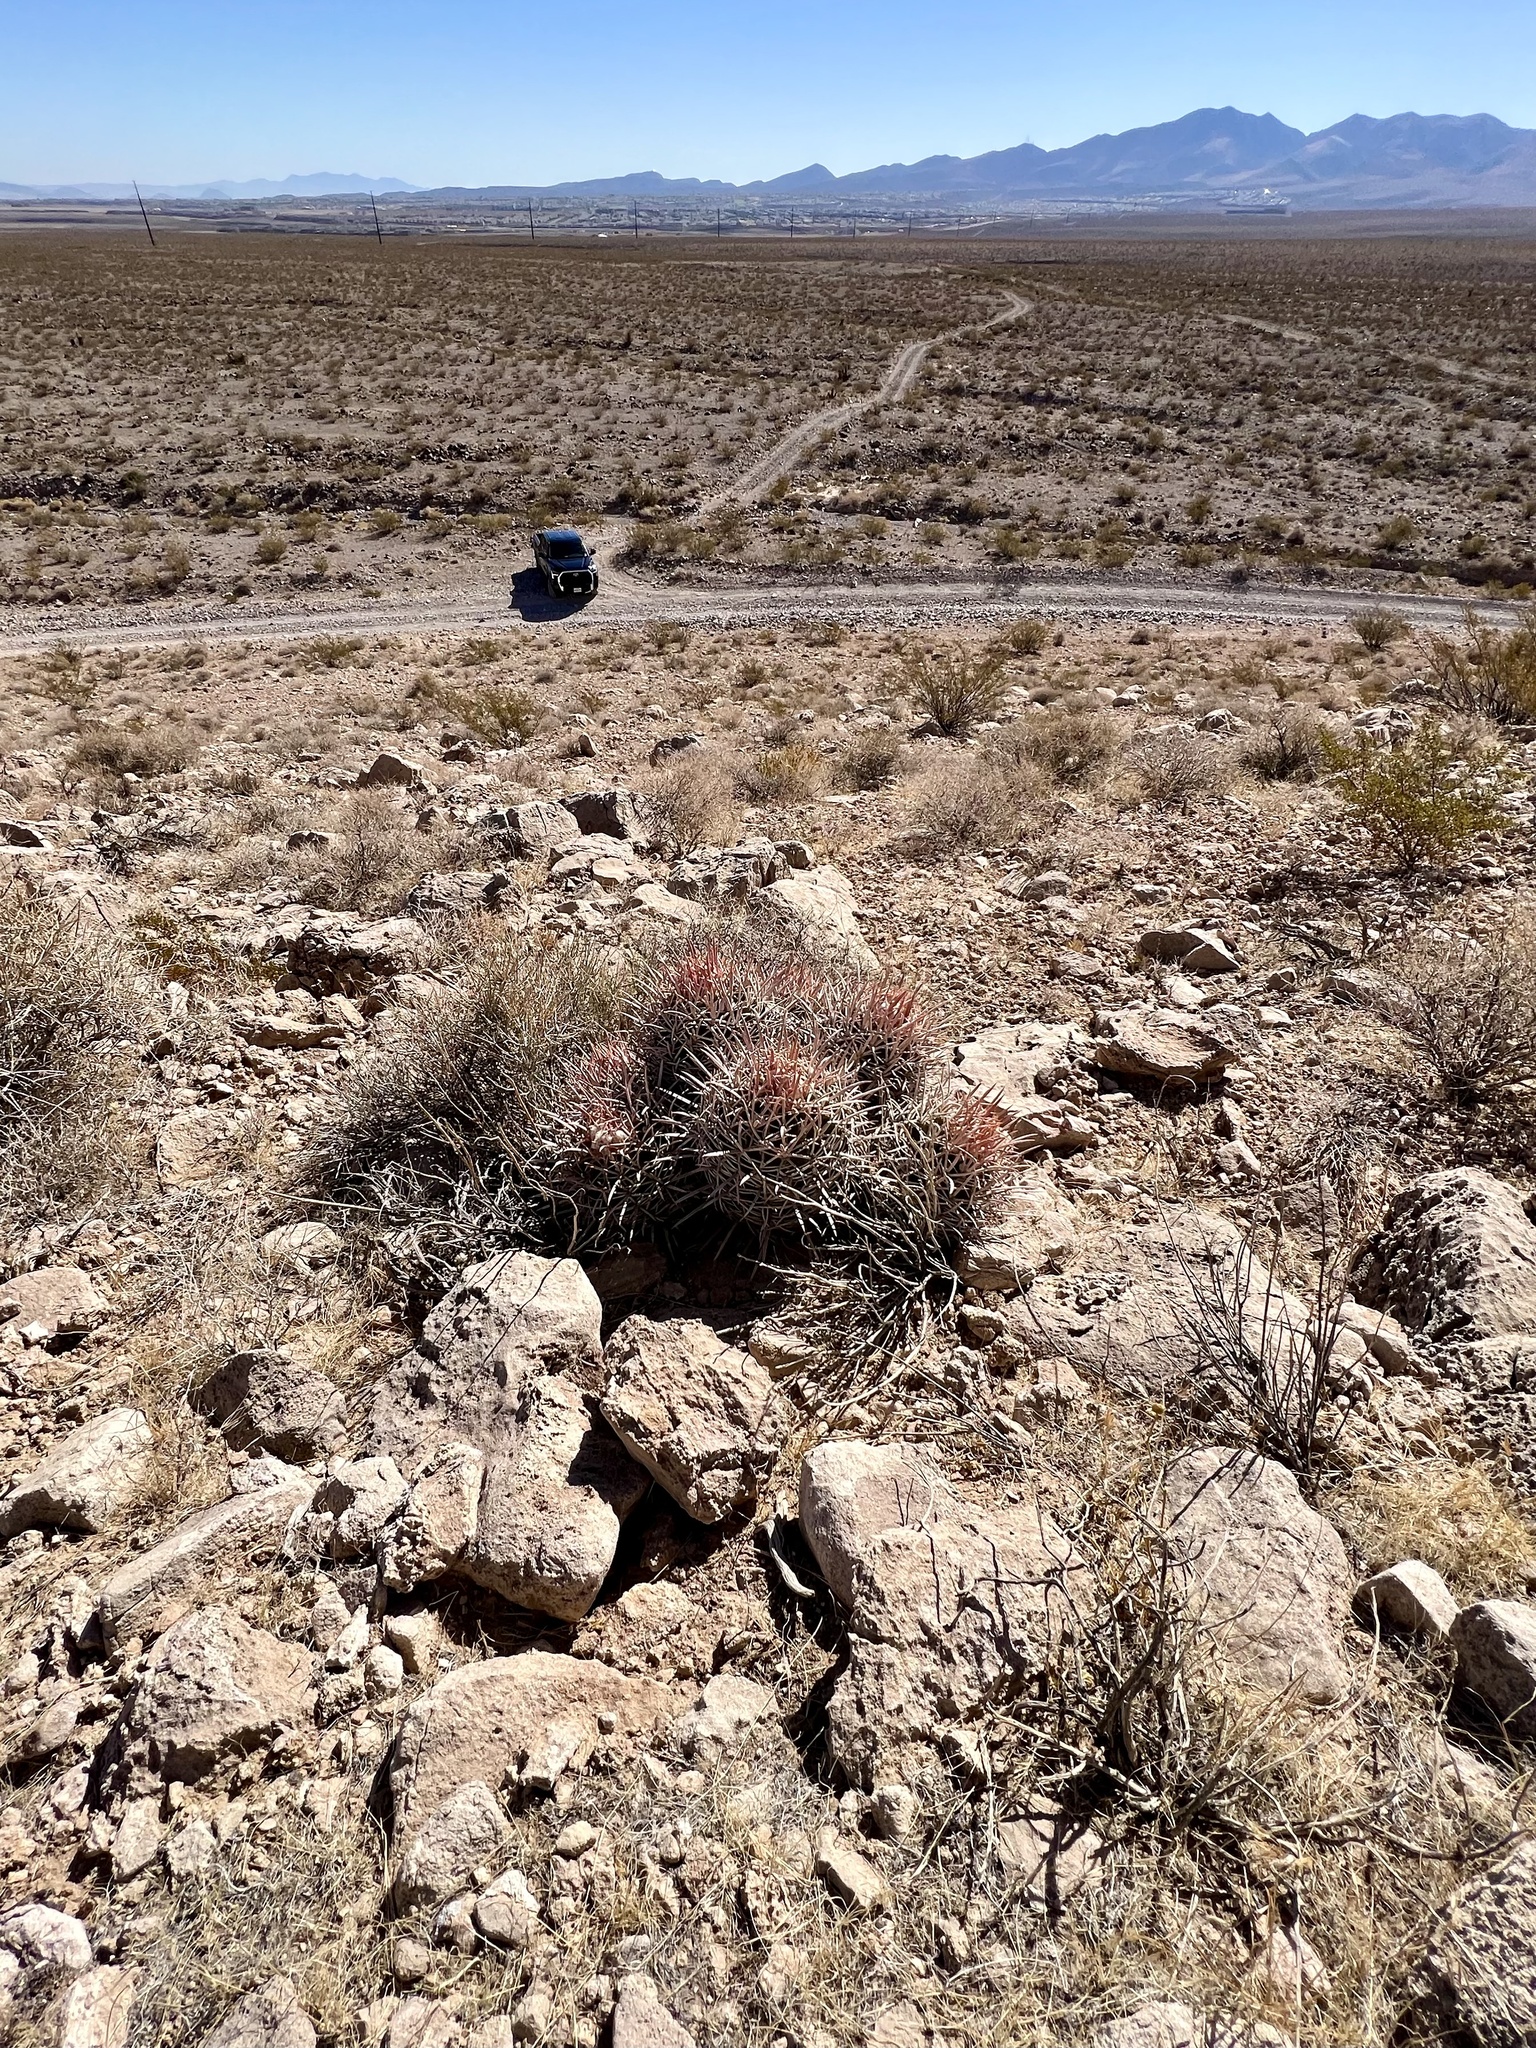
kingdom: Plantae
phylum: Tracheophyta
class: Magnoliopsida
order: Caryophyllales
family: Cactaceae
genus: Echinocactus
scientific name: Echinocactus polycephalus
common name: Cottontop cactus
